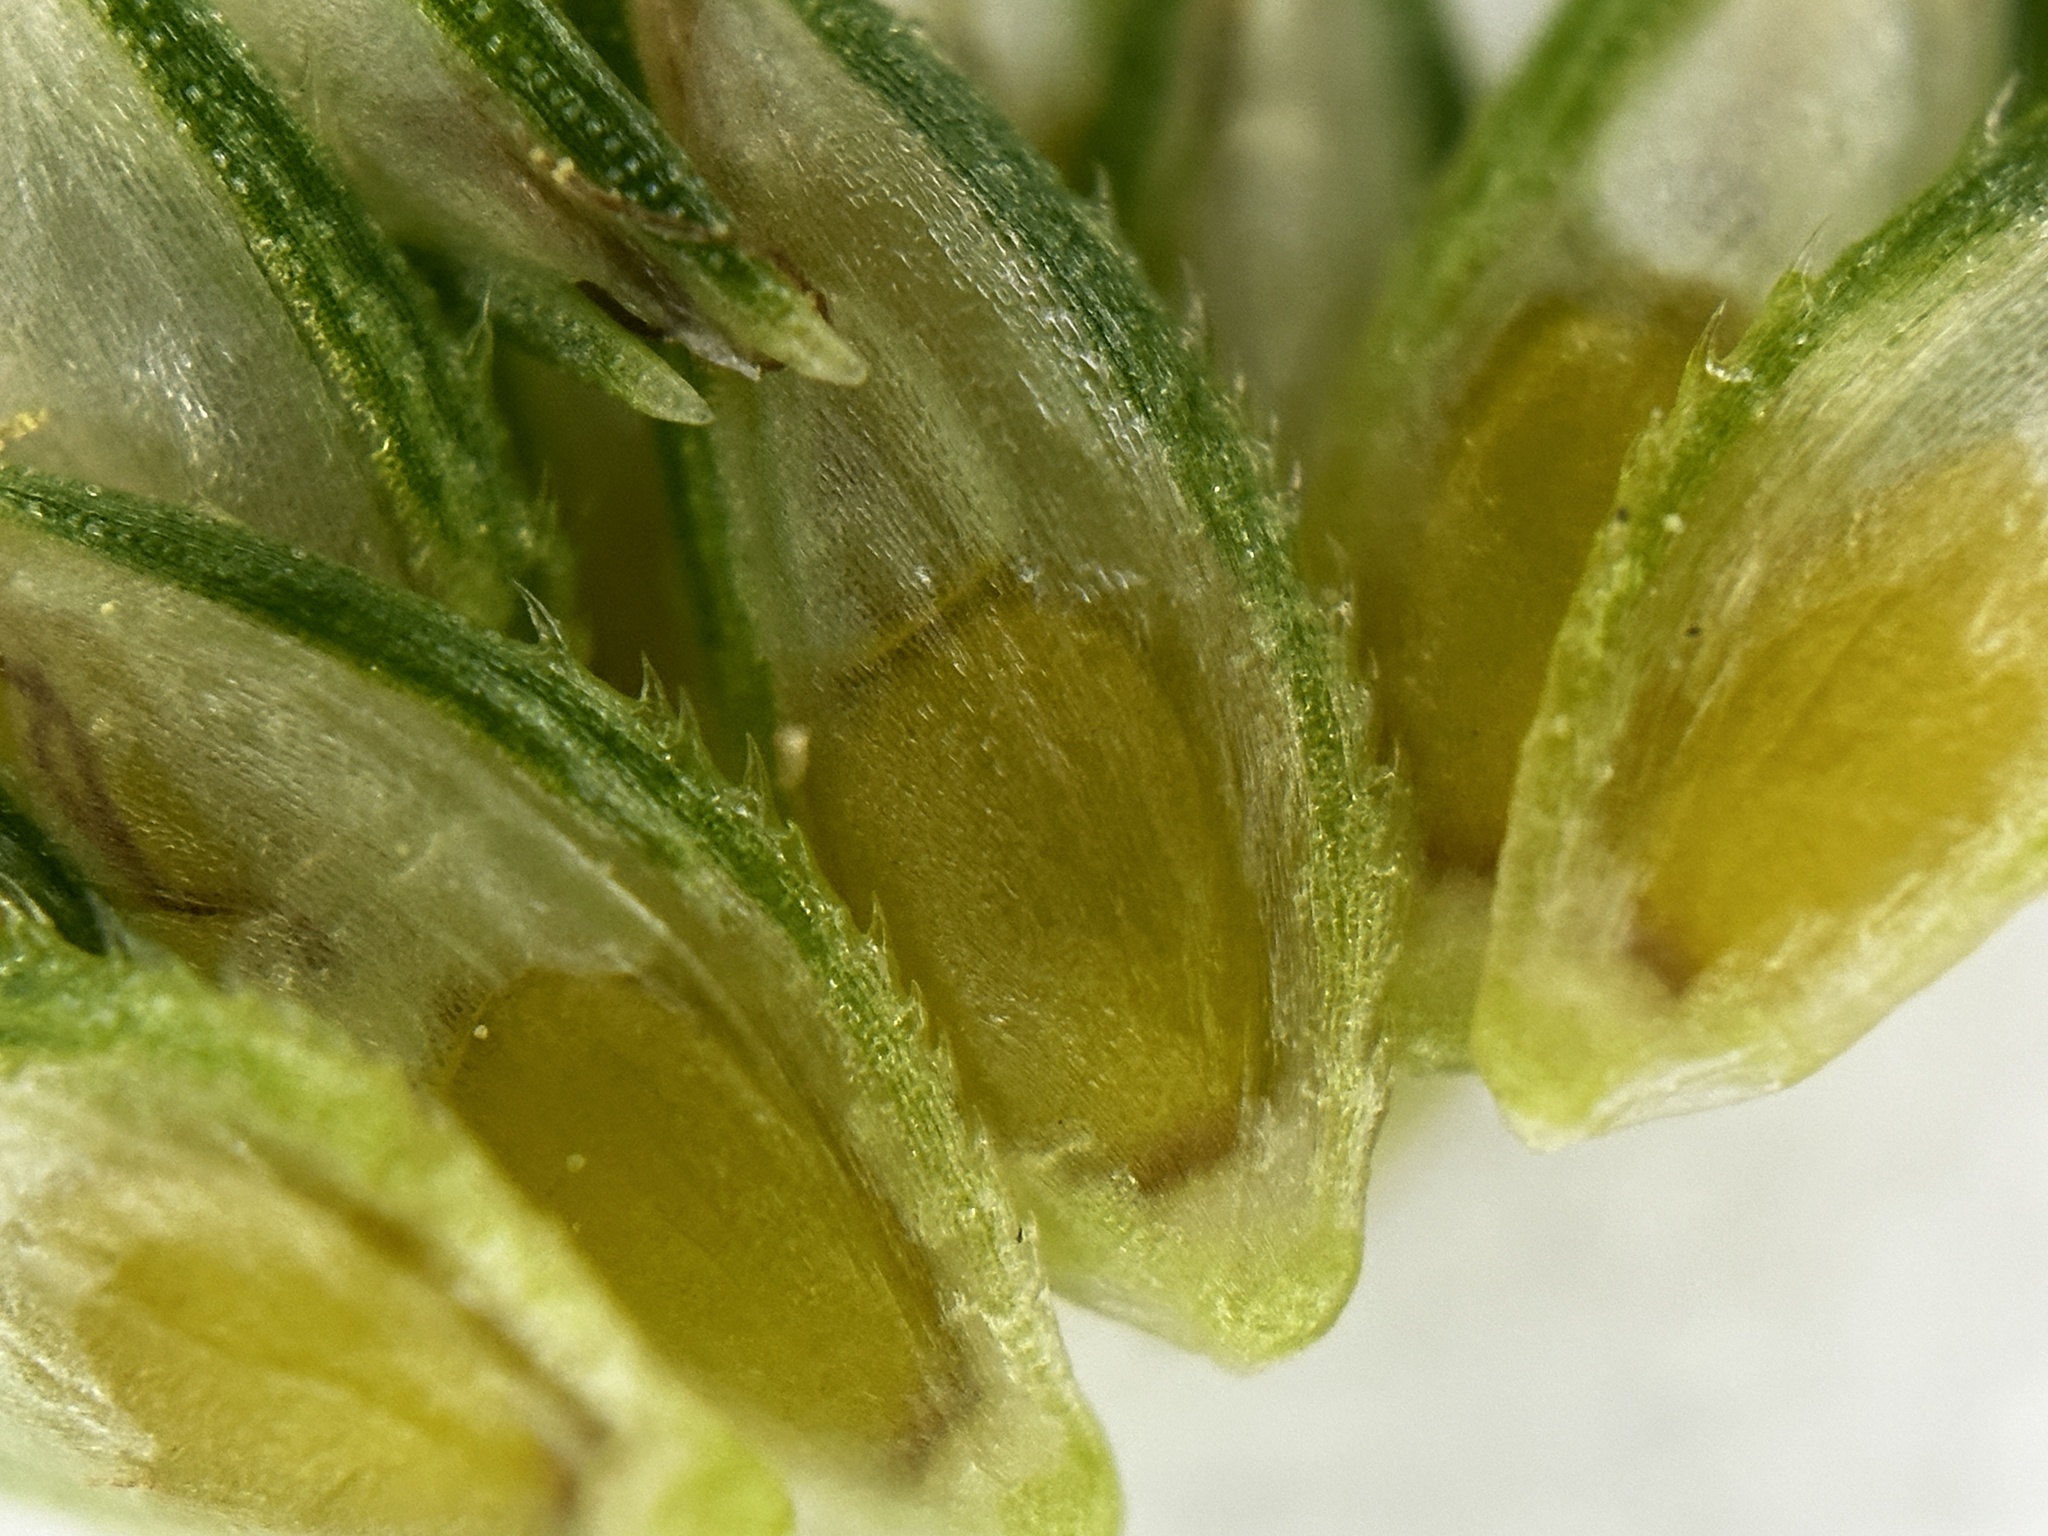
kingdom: Plantae
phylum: Tracheophyta
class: Liliopsida
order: Poales
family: Cyperaceae
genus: Cyperus
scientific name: Cyperus brevifolius
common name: Globe kyllinga
